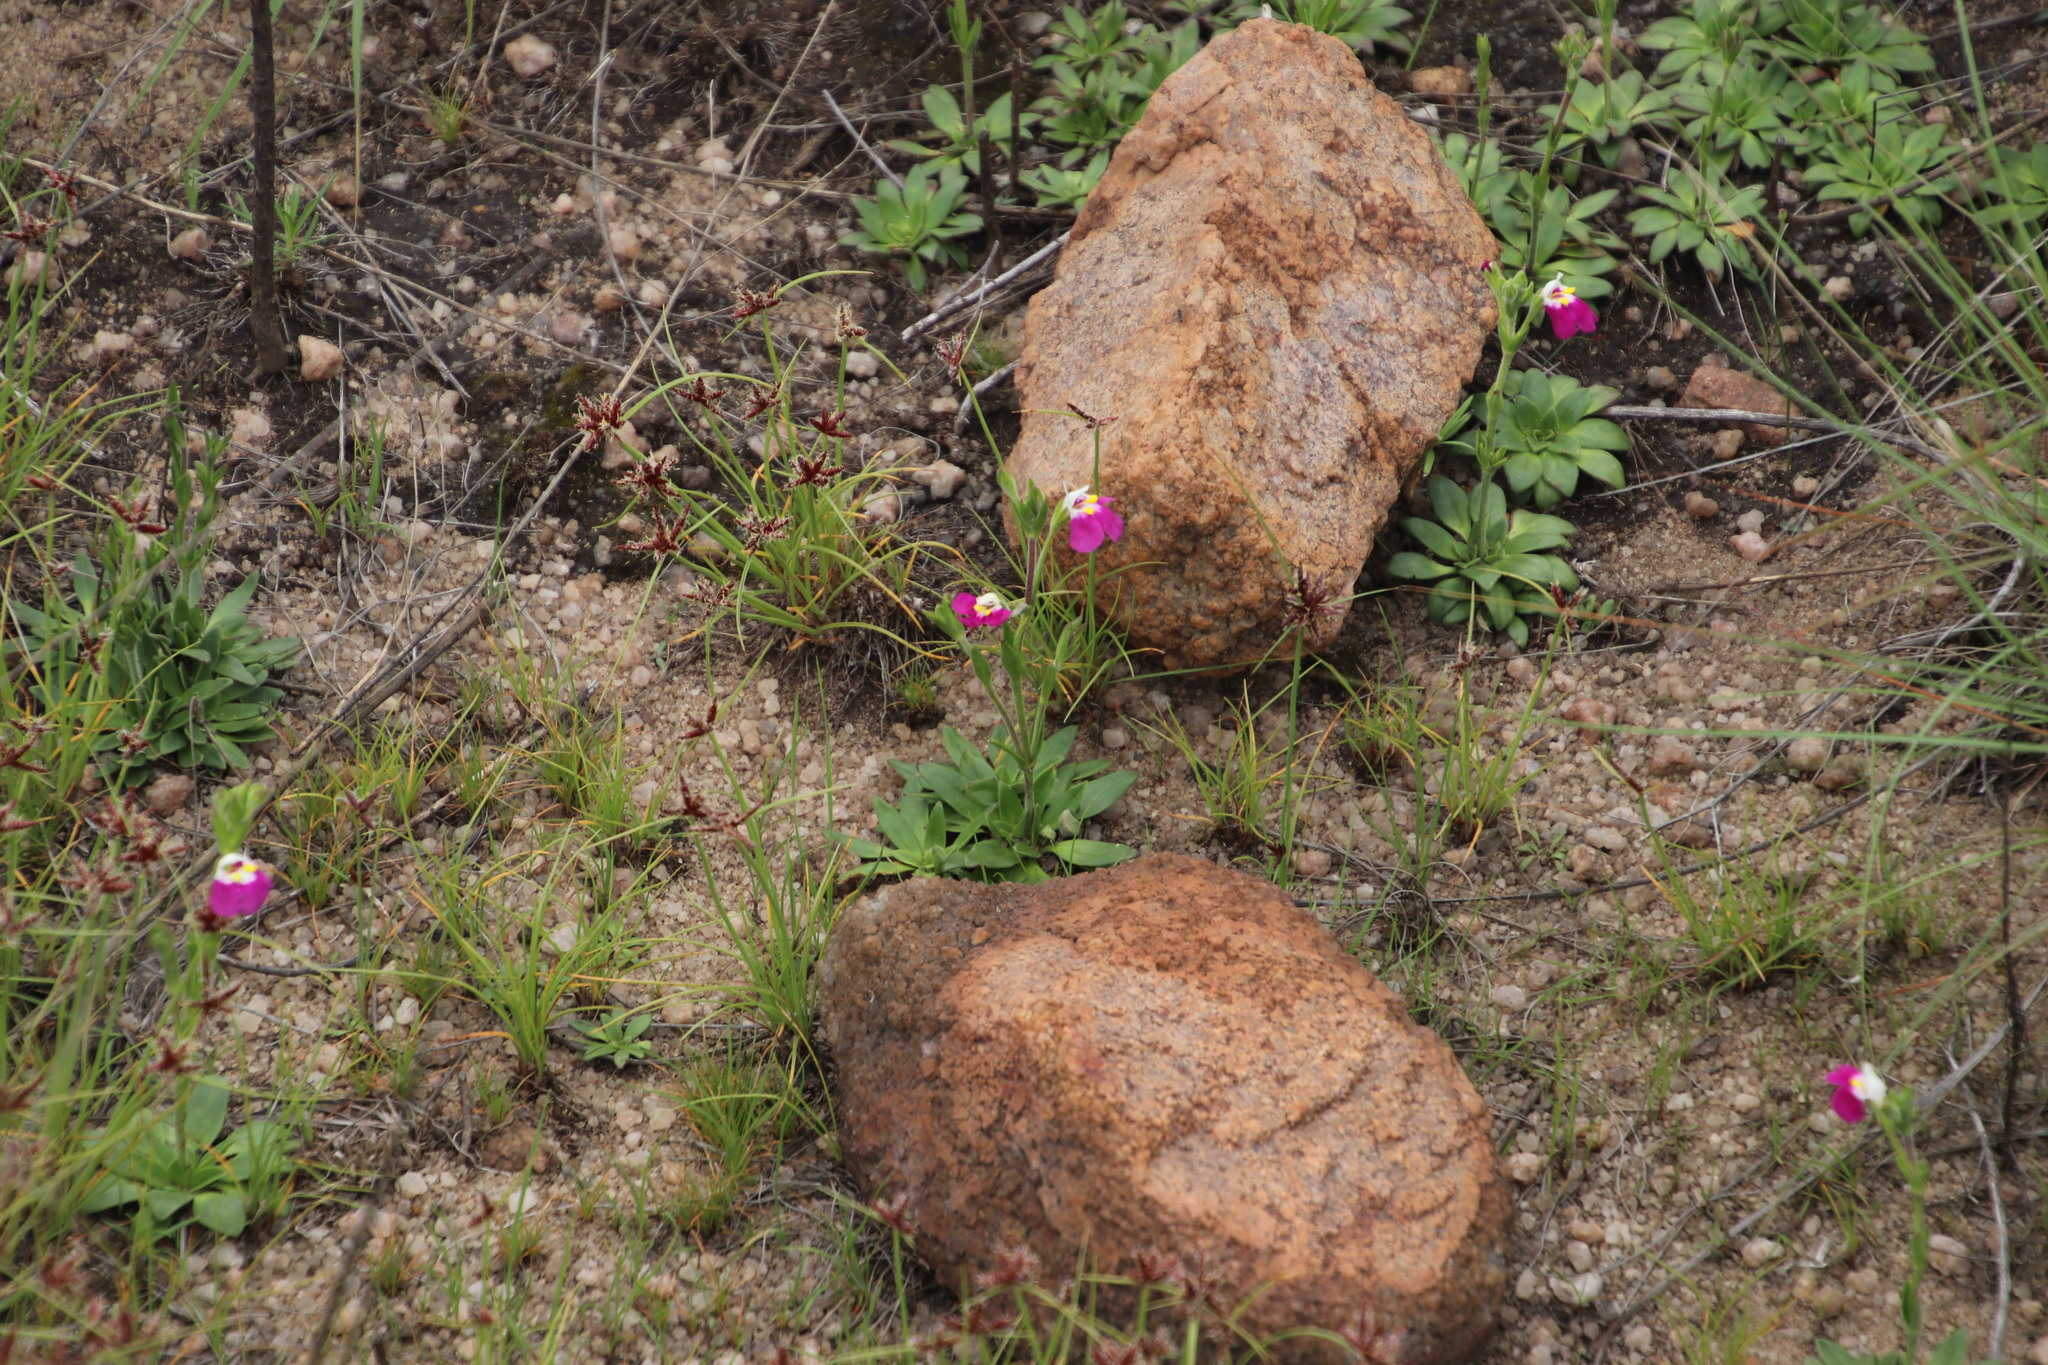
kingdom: Plantae
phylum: Tracheophyta
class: Magnoliopsida
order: Lamiales
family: Linderniaceae
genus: Craterostigma
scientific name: Craterostigma wilmsii
